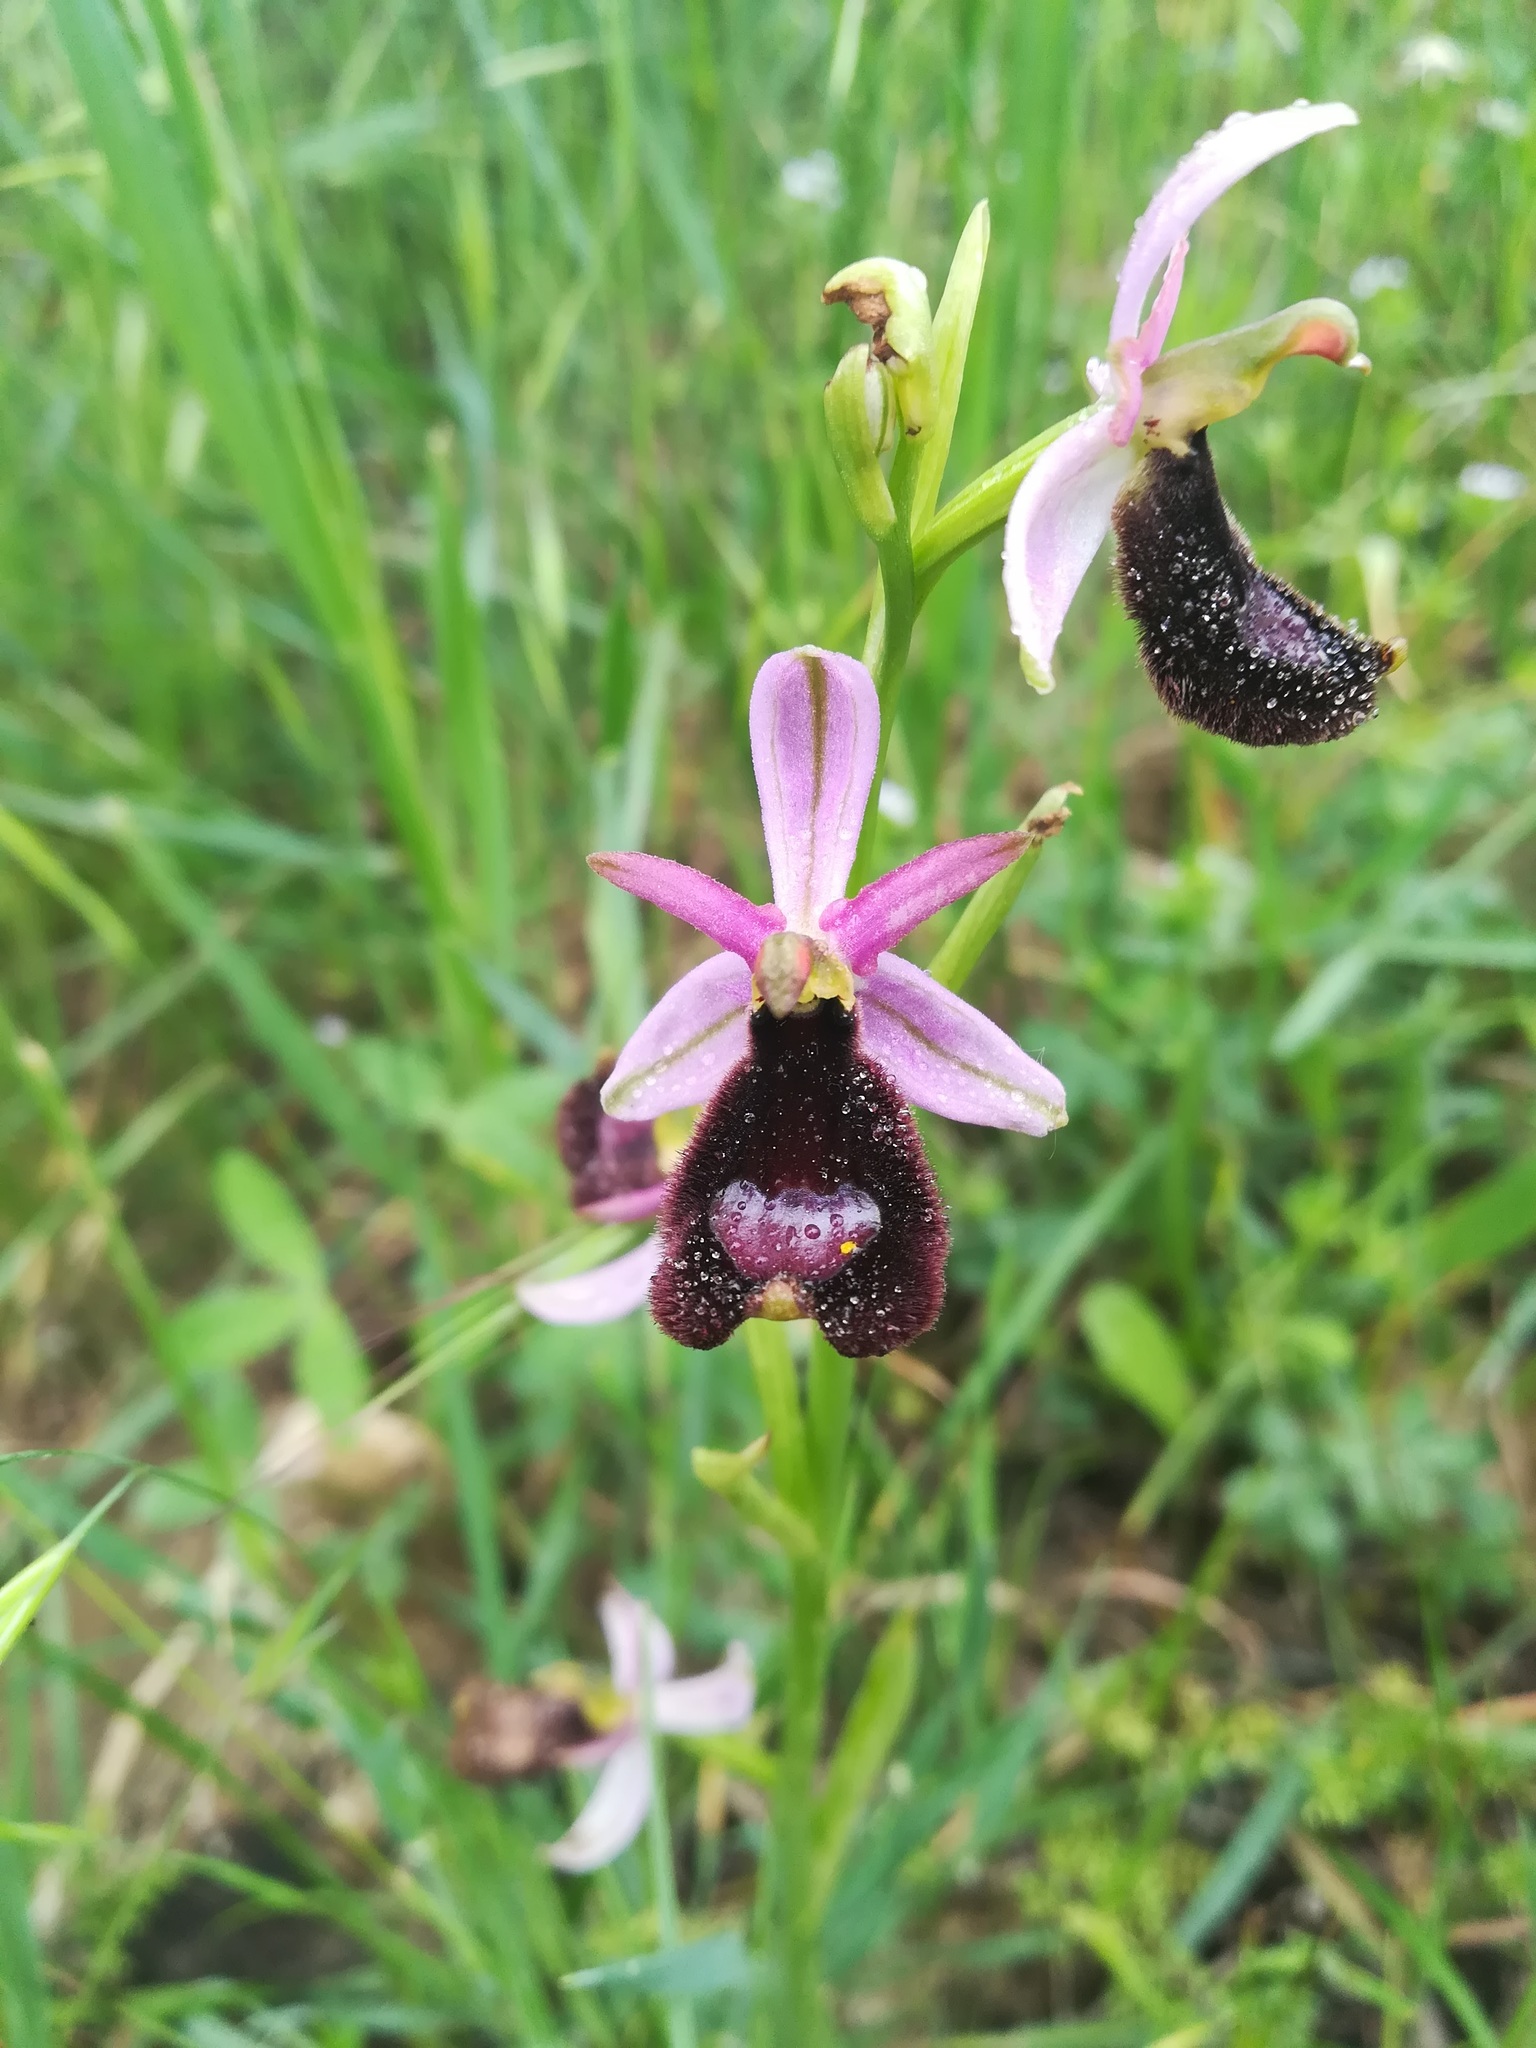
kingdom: Plantae
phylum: Tracheophyta
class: Liliopsida
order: Asparagales
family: Orchidaceae
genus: Ophrys
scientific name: Ophrys bertolonii
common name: Bertoloni's bee orchid
